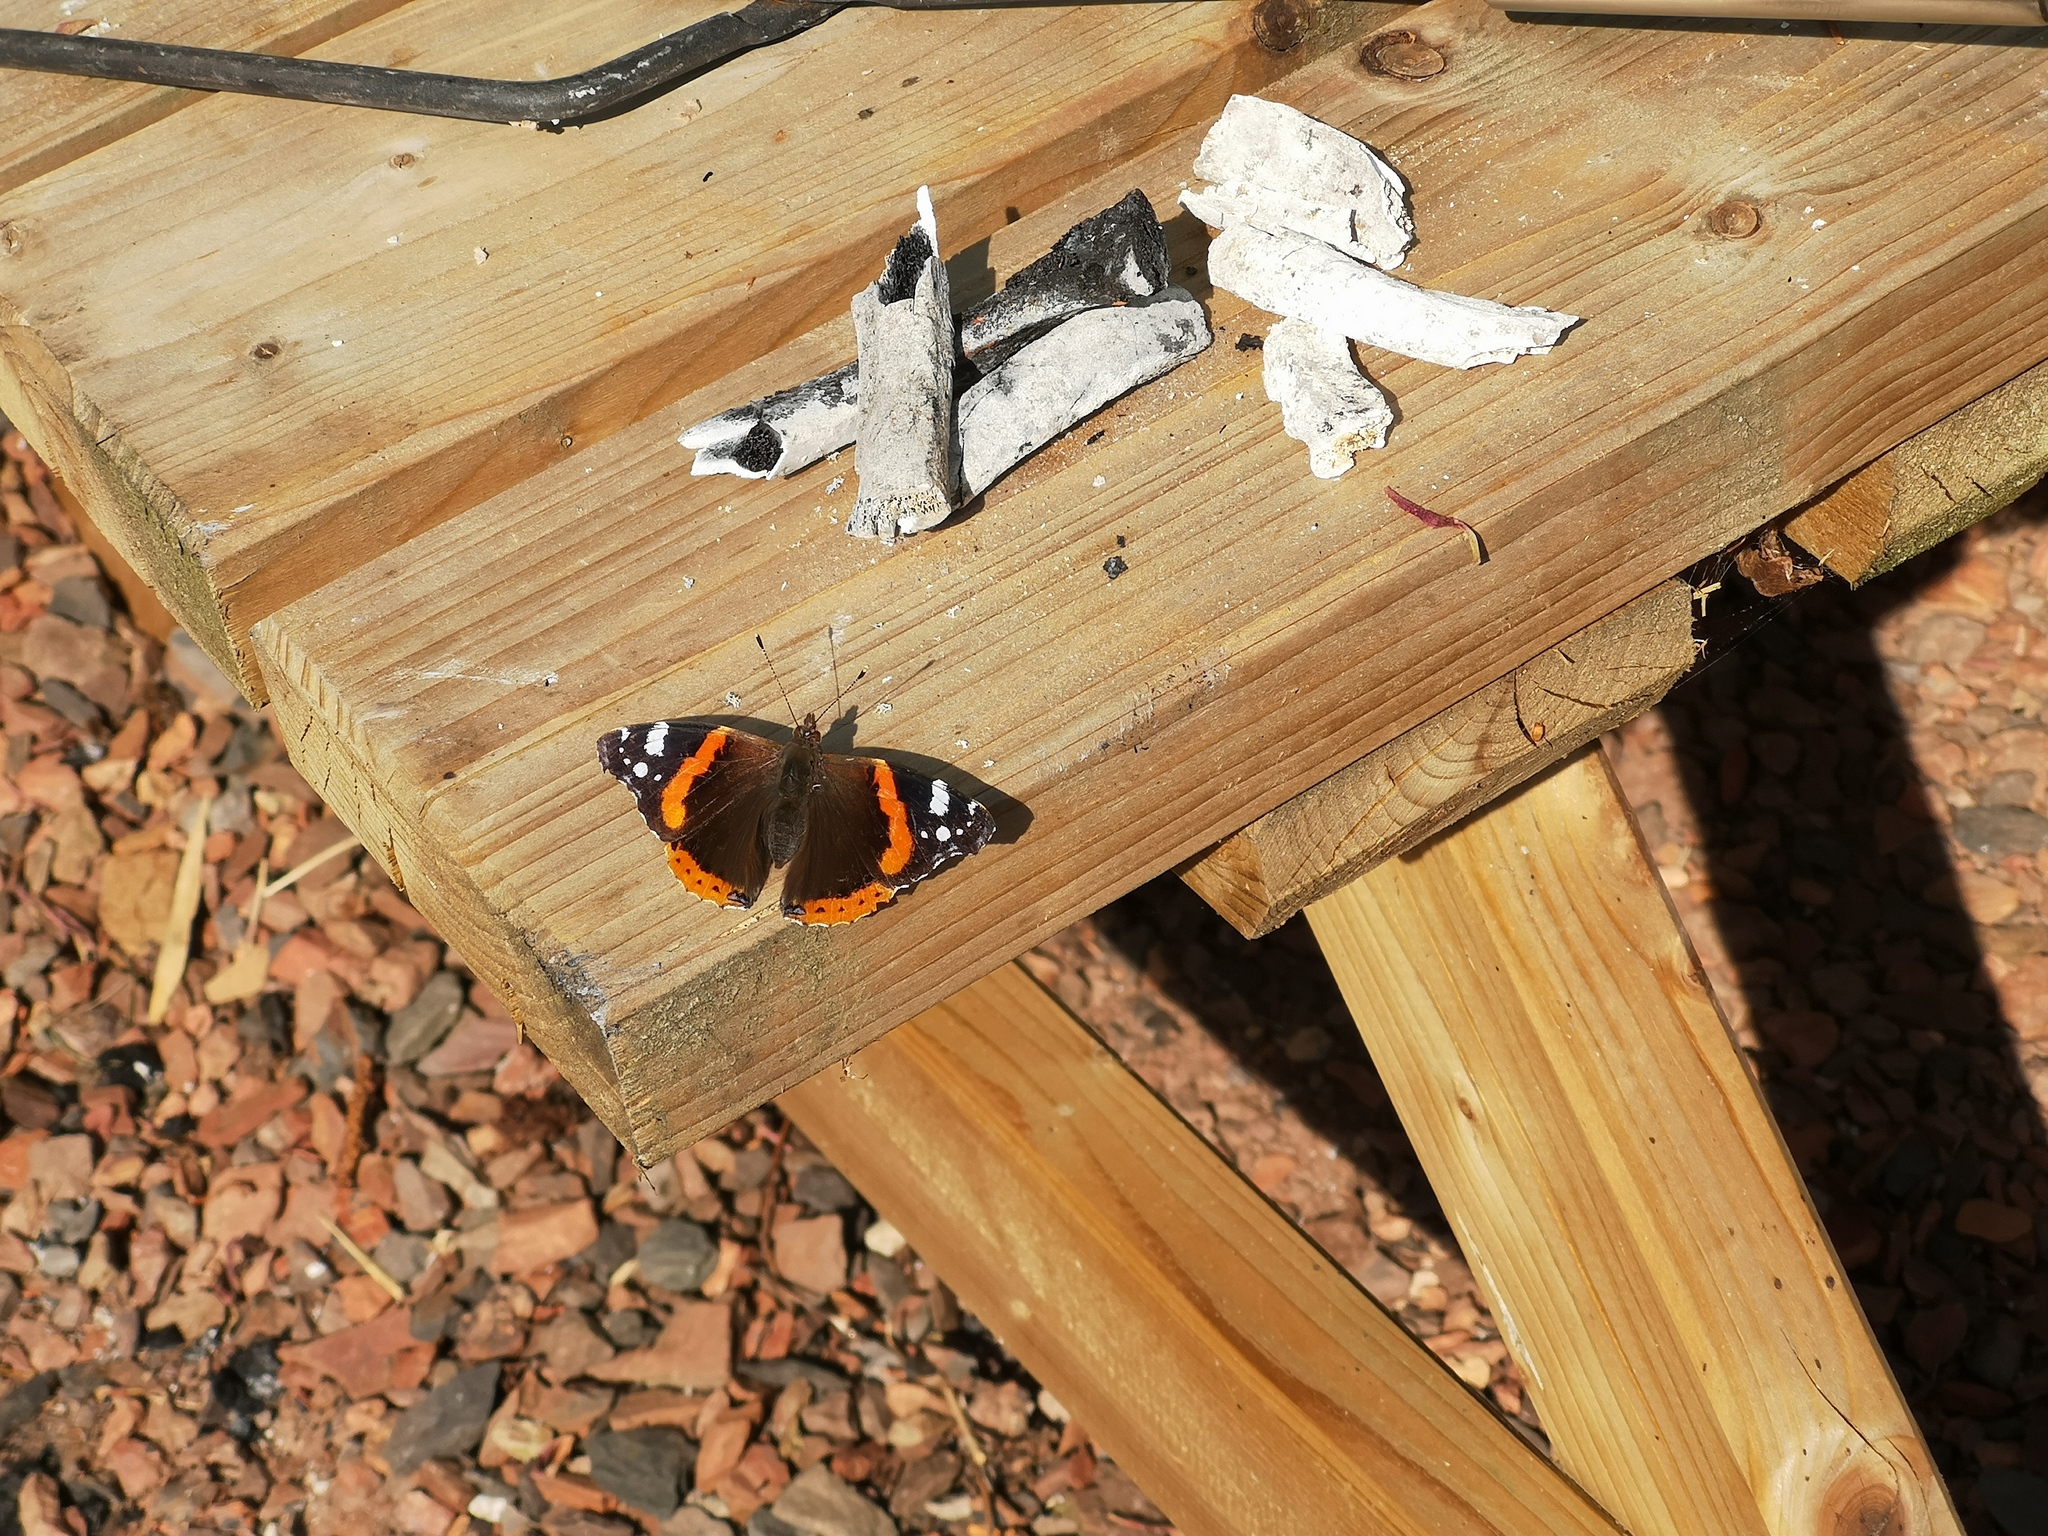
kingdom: Animalia
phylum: Arthropoda
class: Insecta
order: Lepidoptera
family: Nymphalidae
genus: Vanessa
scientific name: Vanessa atalanta
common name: Red admiral
